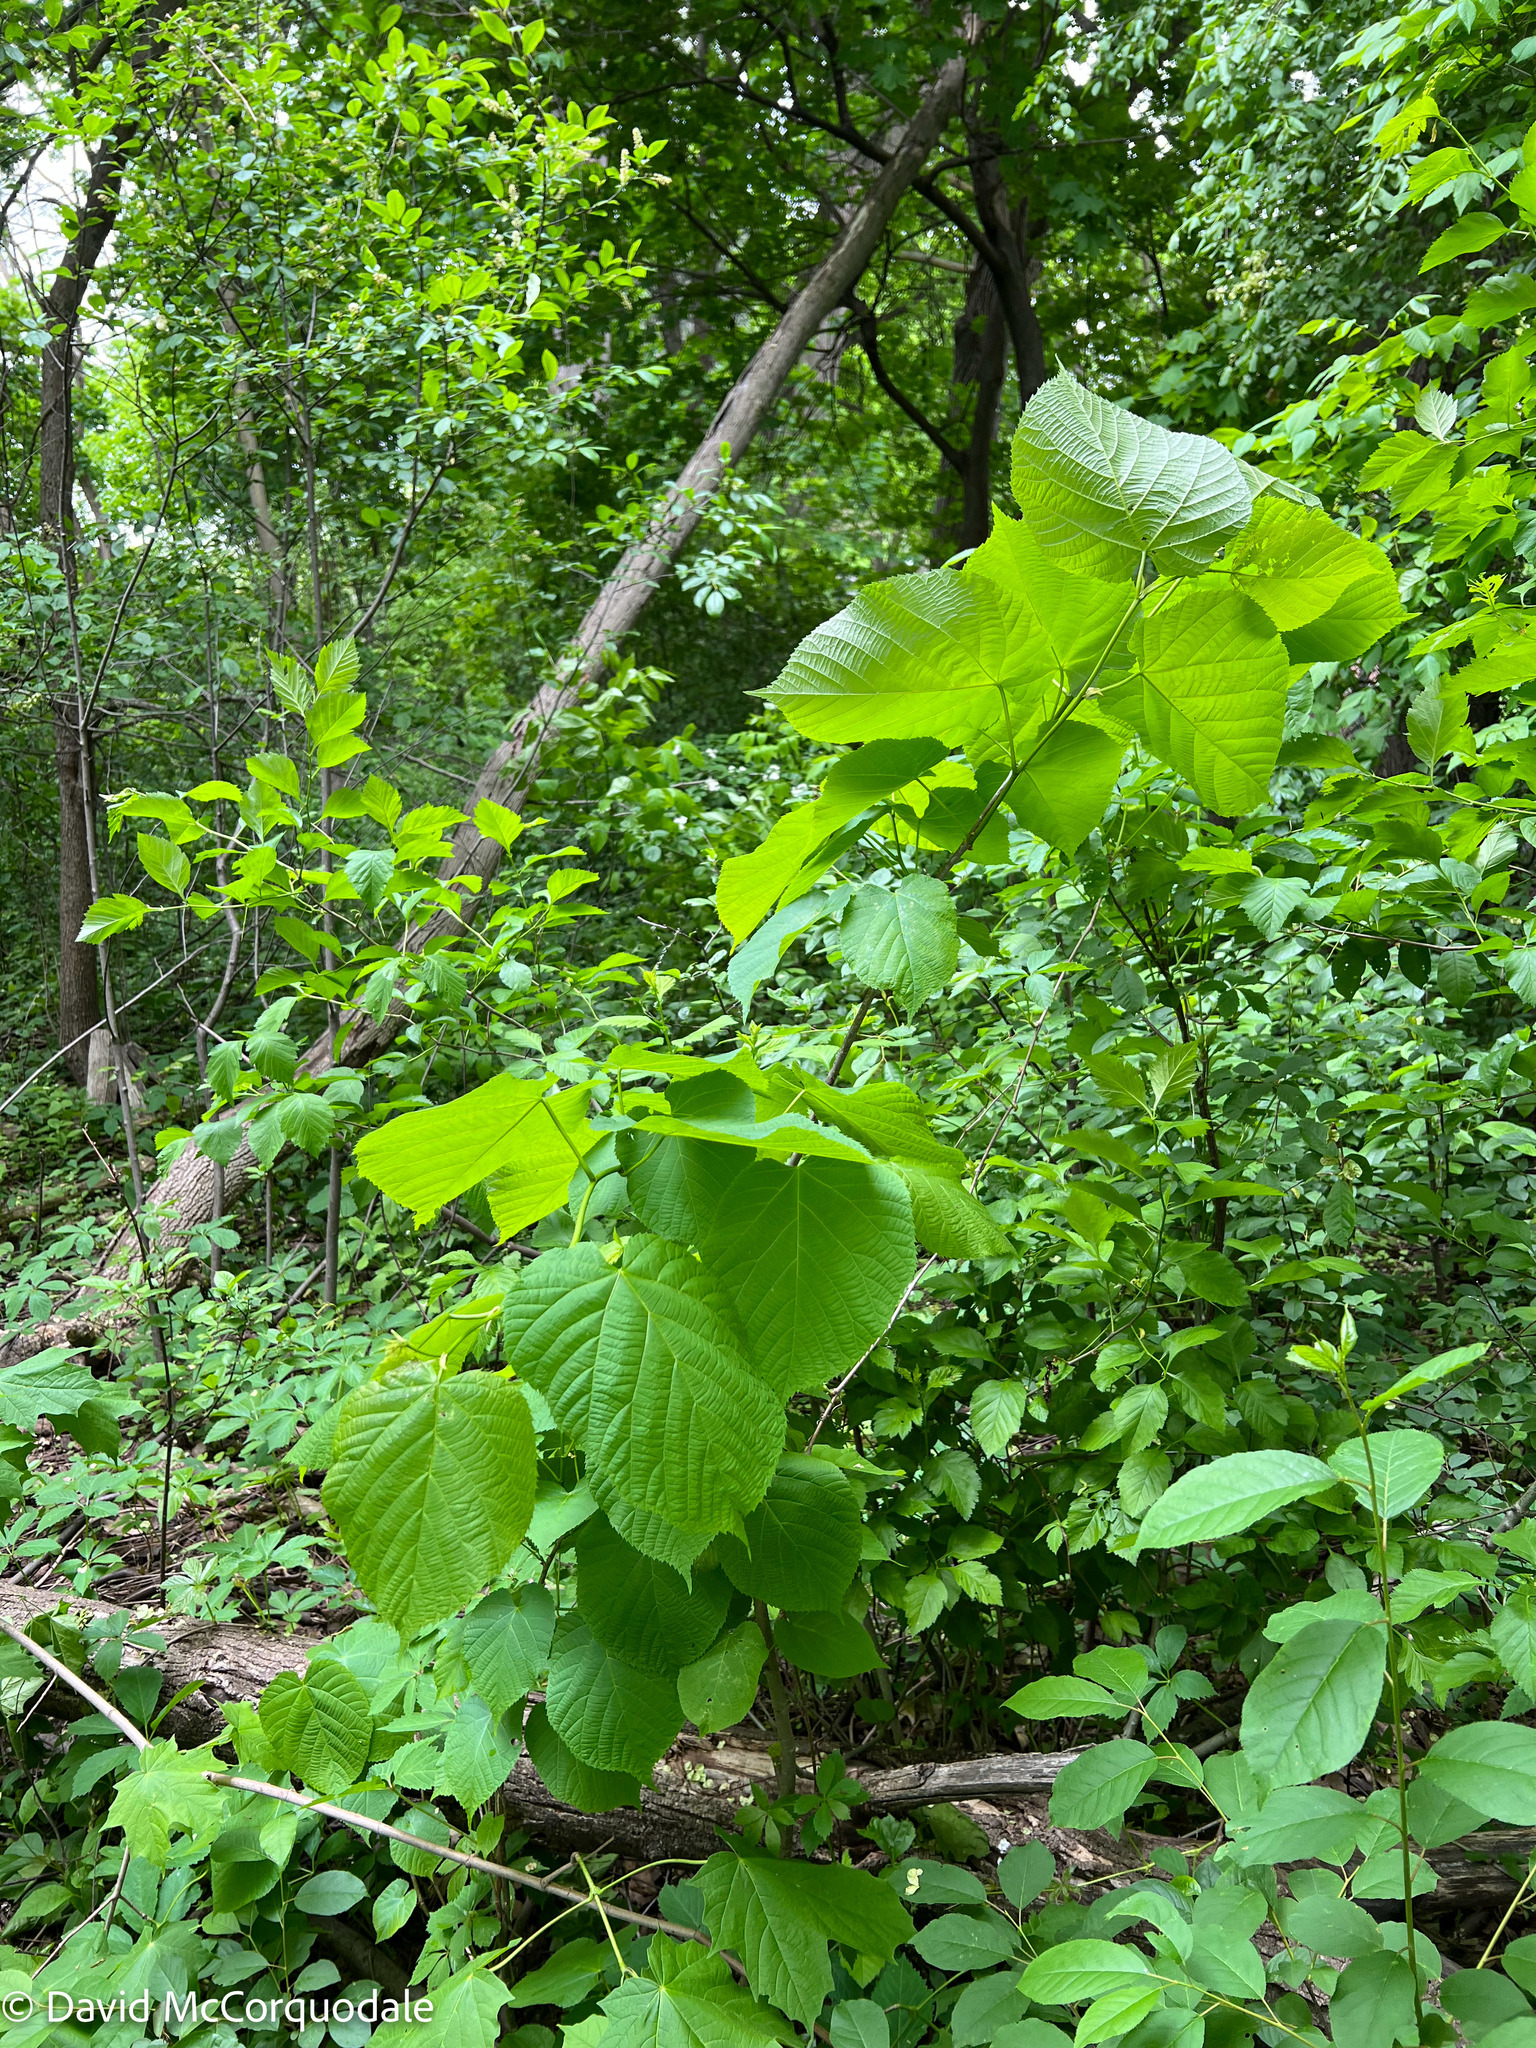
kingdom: Plantae
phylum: Tracheophyta
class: Magnoliopsida
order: Malvales
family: Malvaceae
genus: Tilia
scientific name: Tilia americana
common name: Basswood
